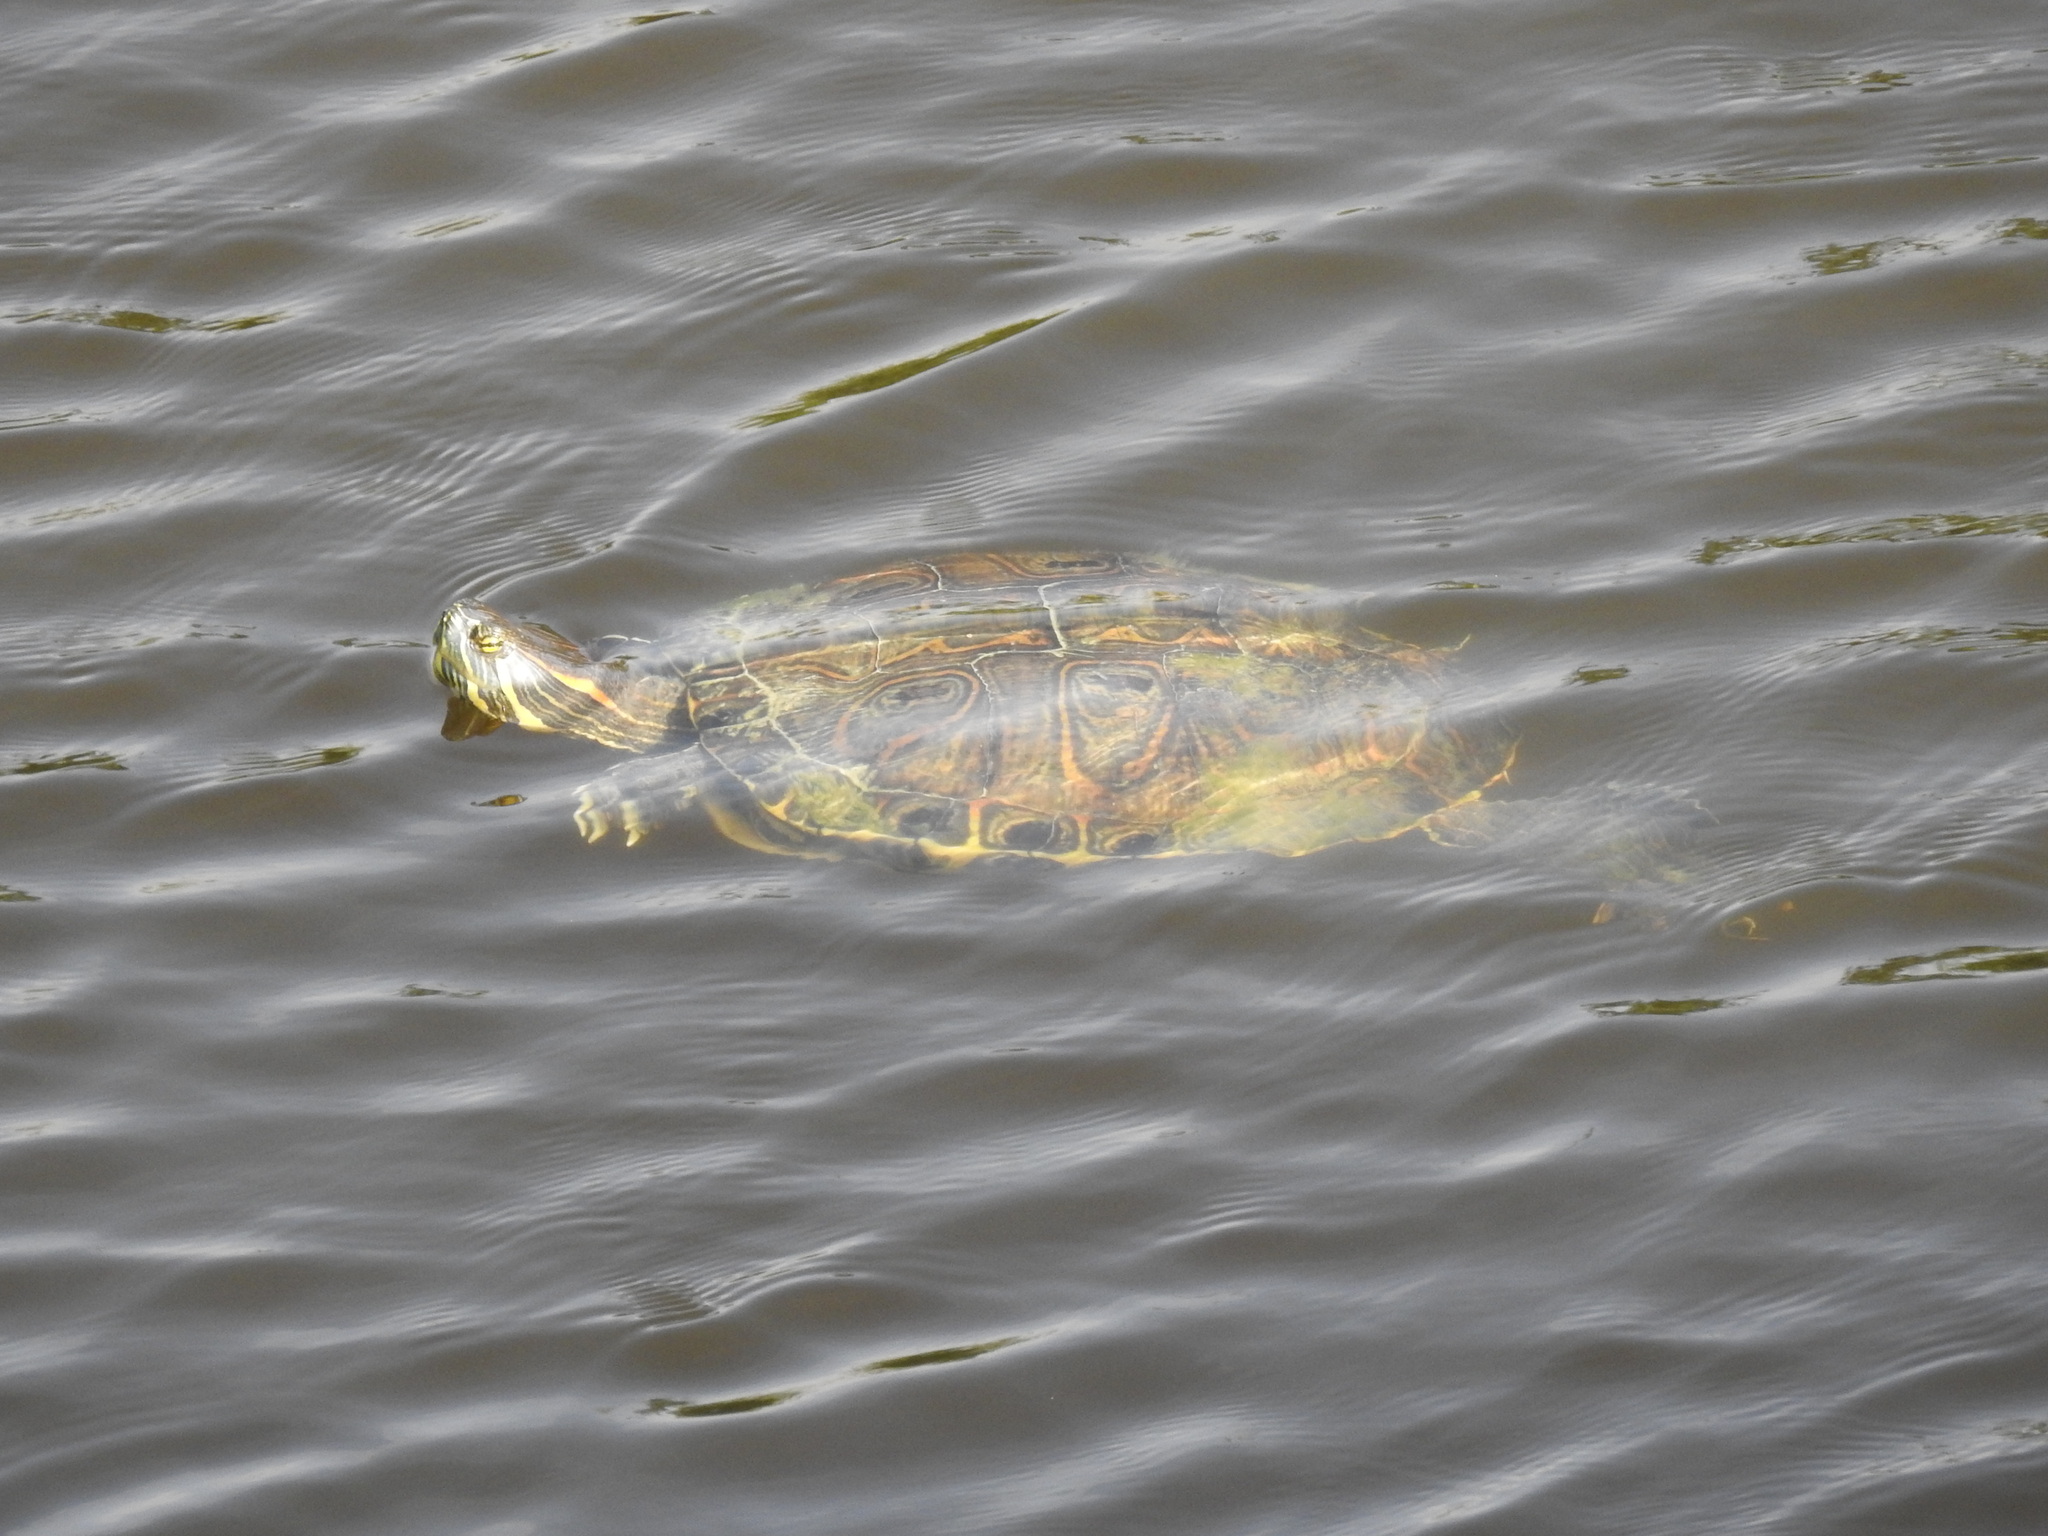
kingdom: Animalia
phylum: Chordata
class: Testudines
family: Emydidae
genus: Trachemys
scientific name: Trachemys venusta
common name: Mesoamerican slider
